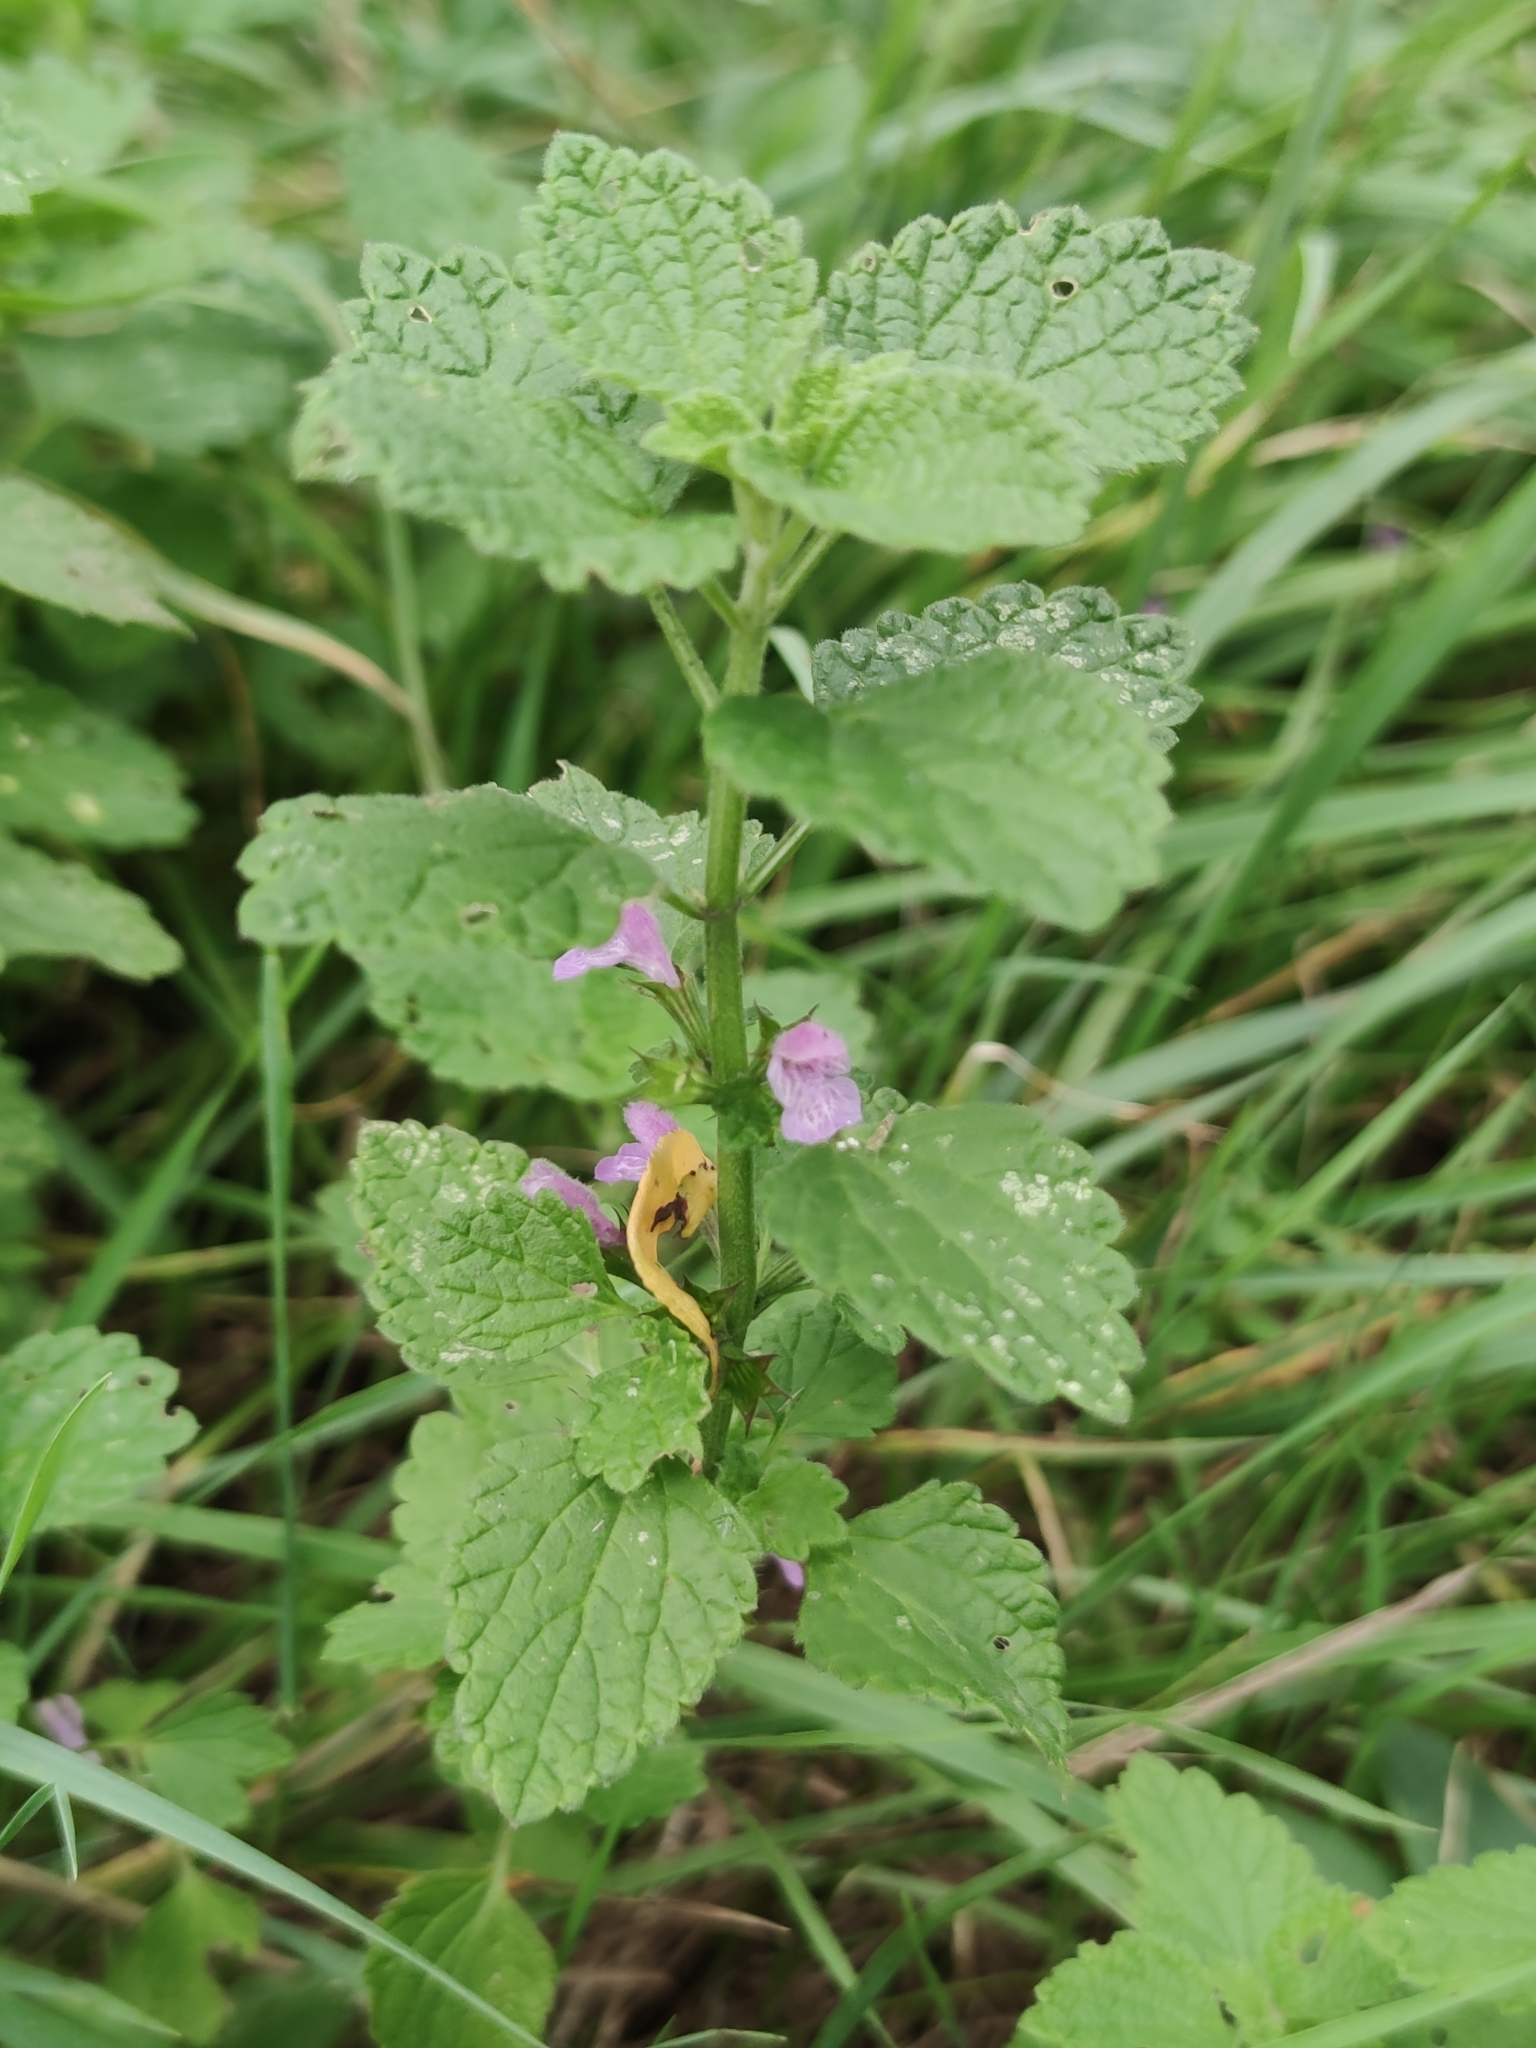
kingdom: Plantae
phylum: Tracheophyta
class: Magnoliopsida
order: Lamiales
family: Lamiaceae
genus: Ballota
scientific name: Ballota nigra
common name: Black horehound
